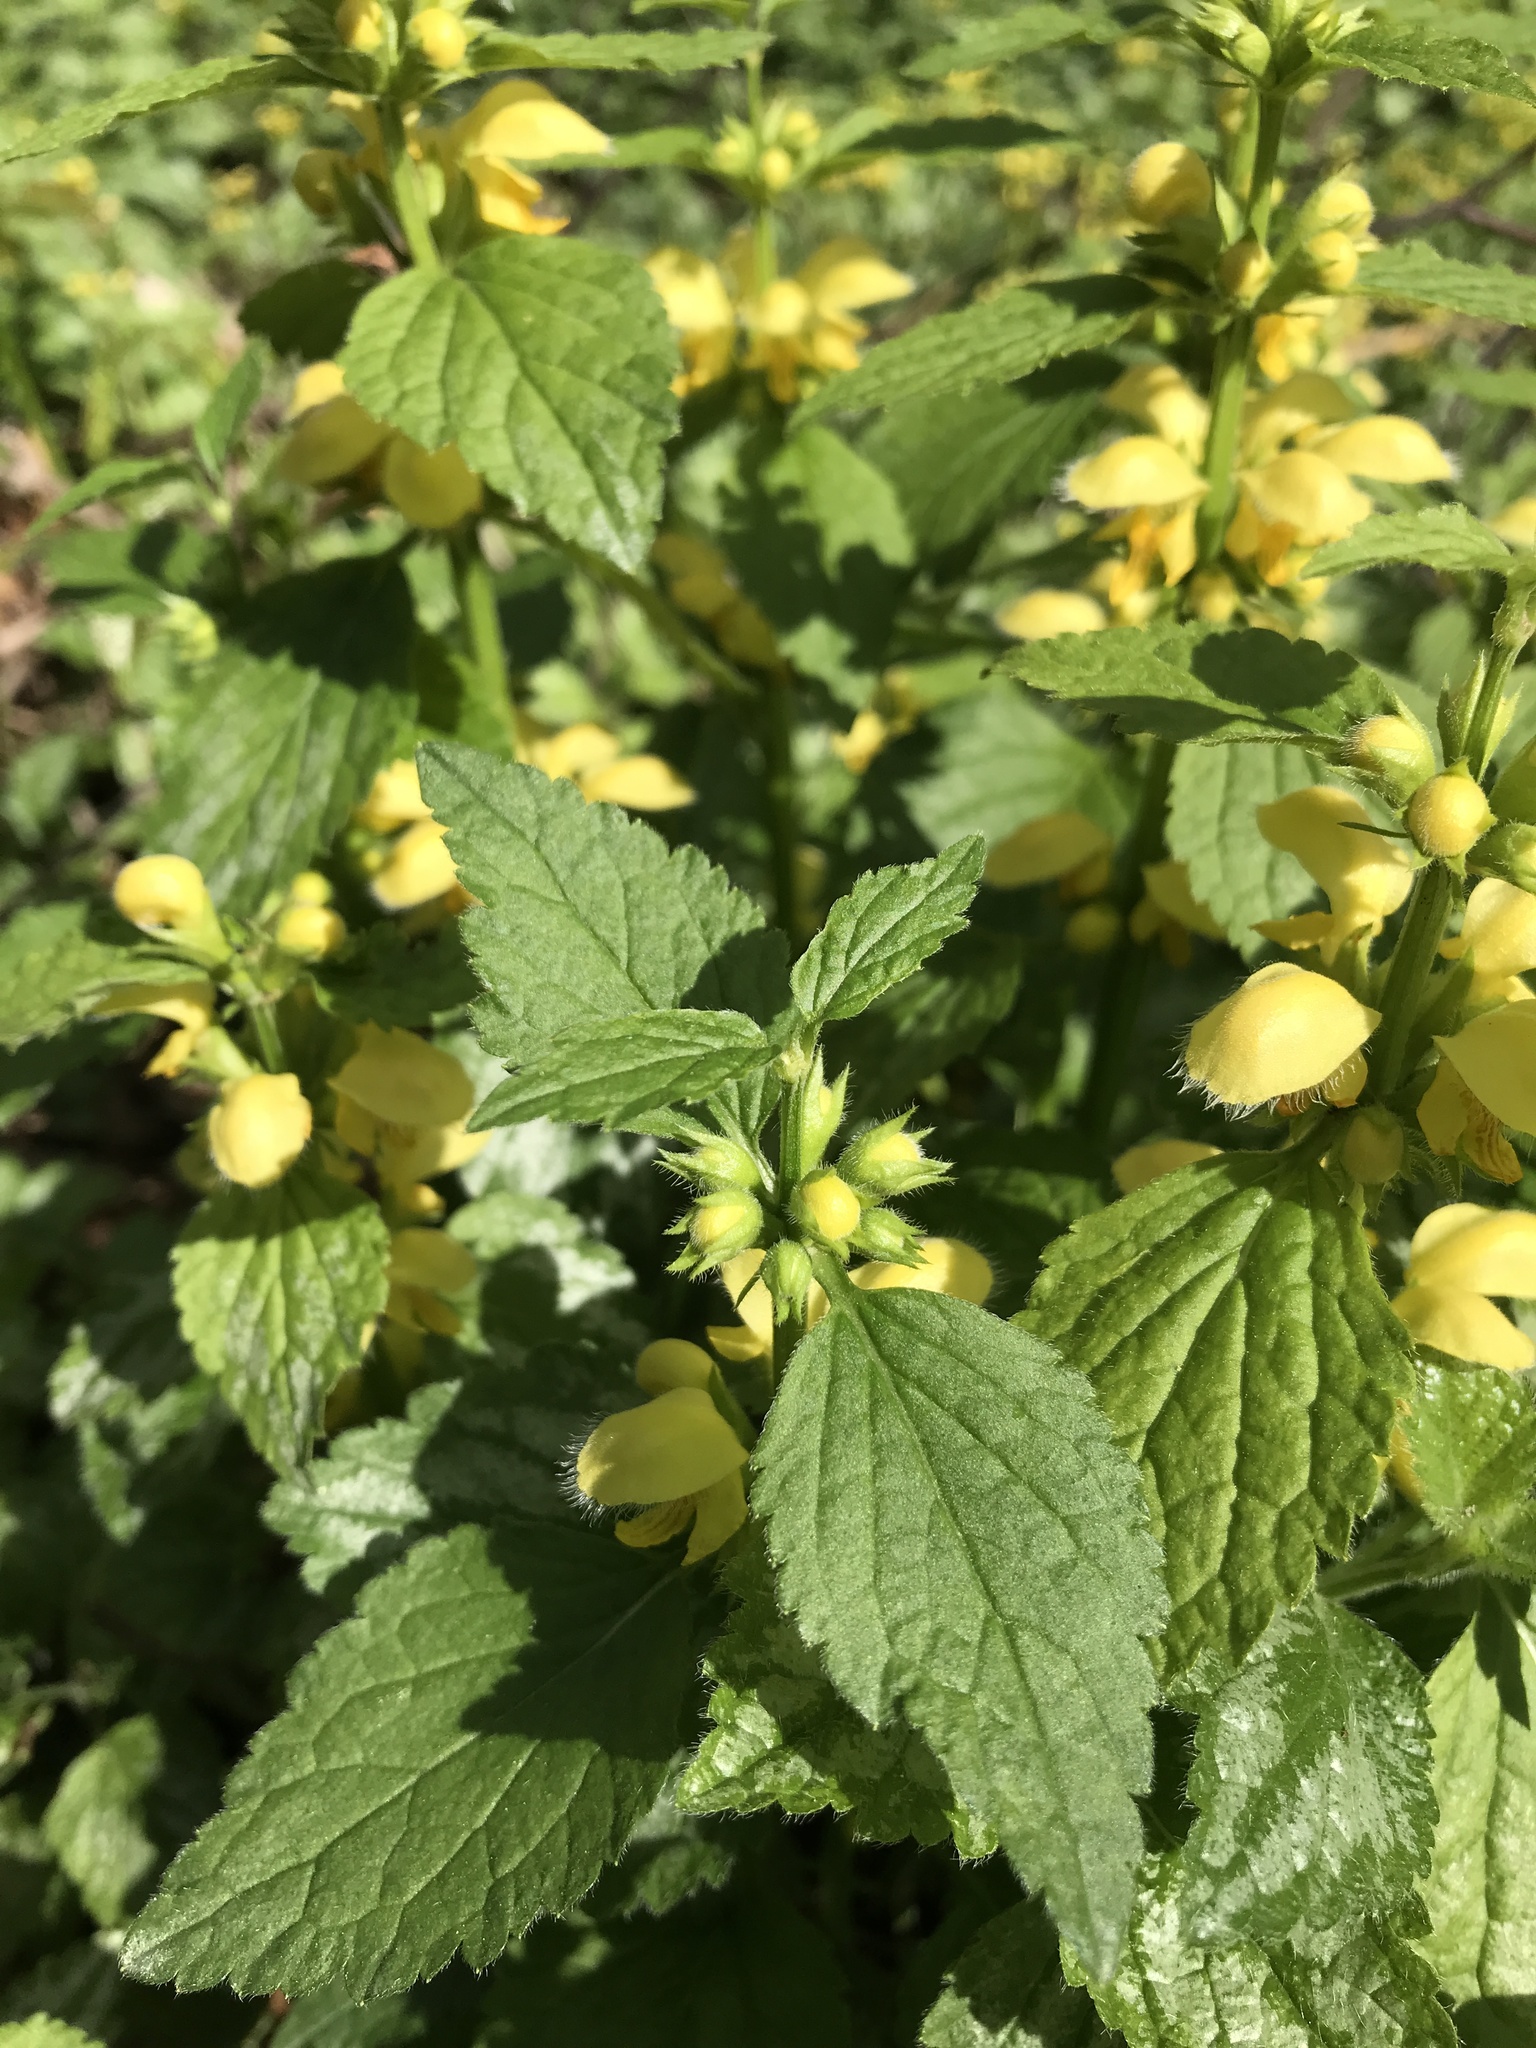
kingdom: Plantae
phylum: Tracheophyta
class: Magnoliopsida
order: Lamiales
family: Lamiaceae
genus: Lamium
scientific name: Lamium galeobdolon
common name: Yellow archangel
